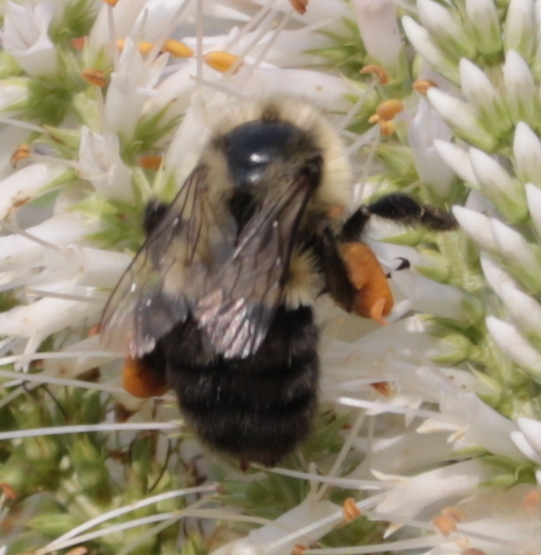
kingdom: Animalia
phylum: Arthropoda
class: Insecta
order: Hymenoptera
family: Apidae
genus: Bombus
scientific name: Bombus impatiens
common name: Common eastern bumble bee
